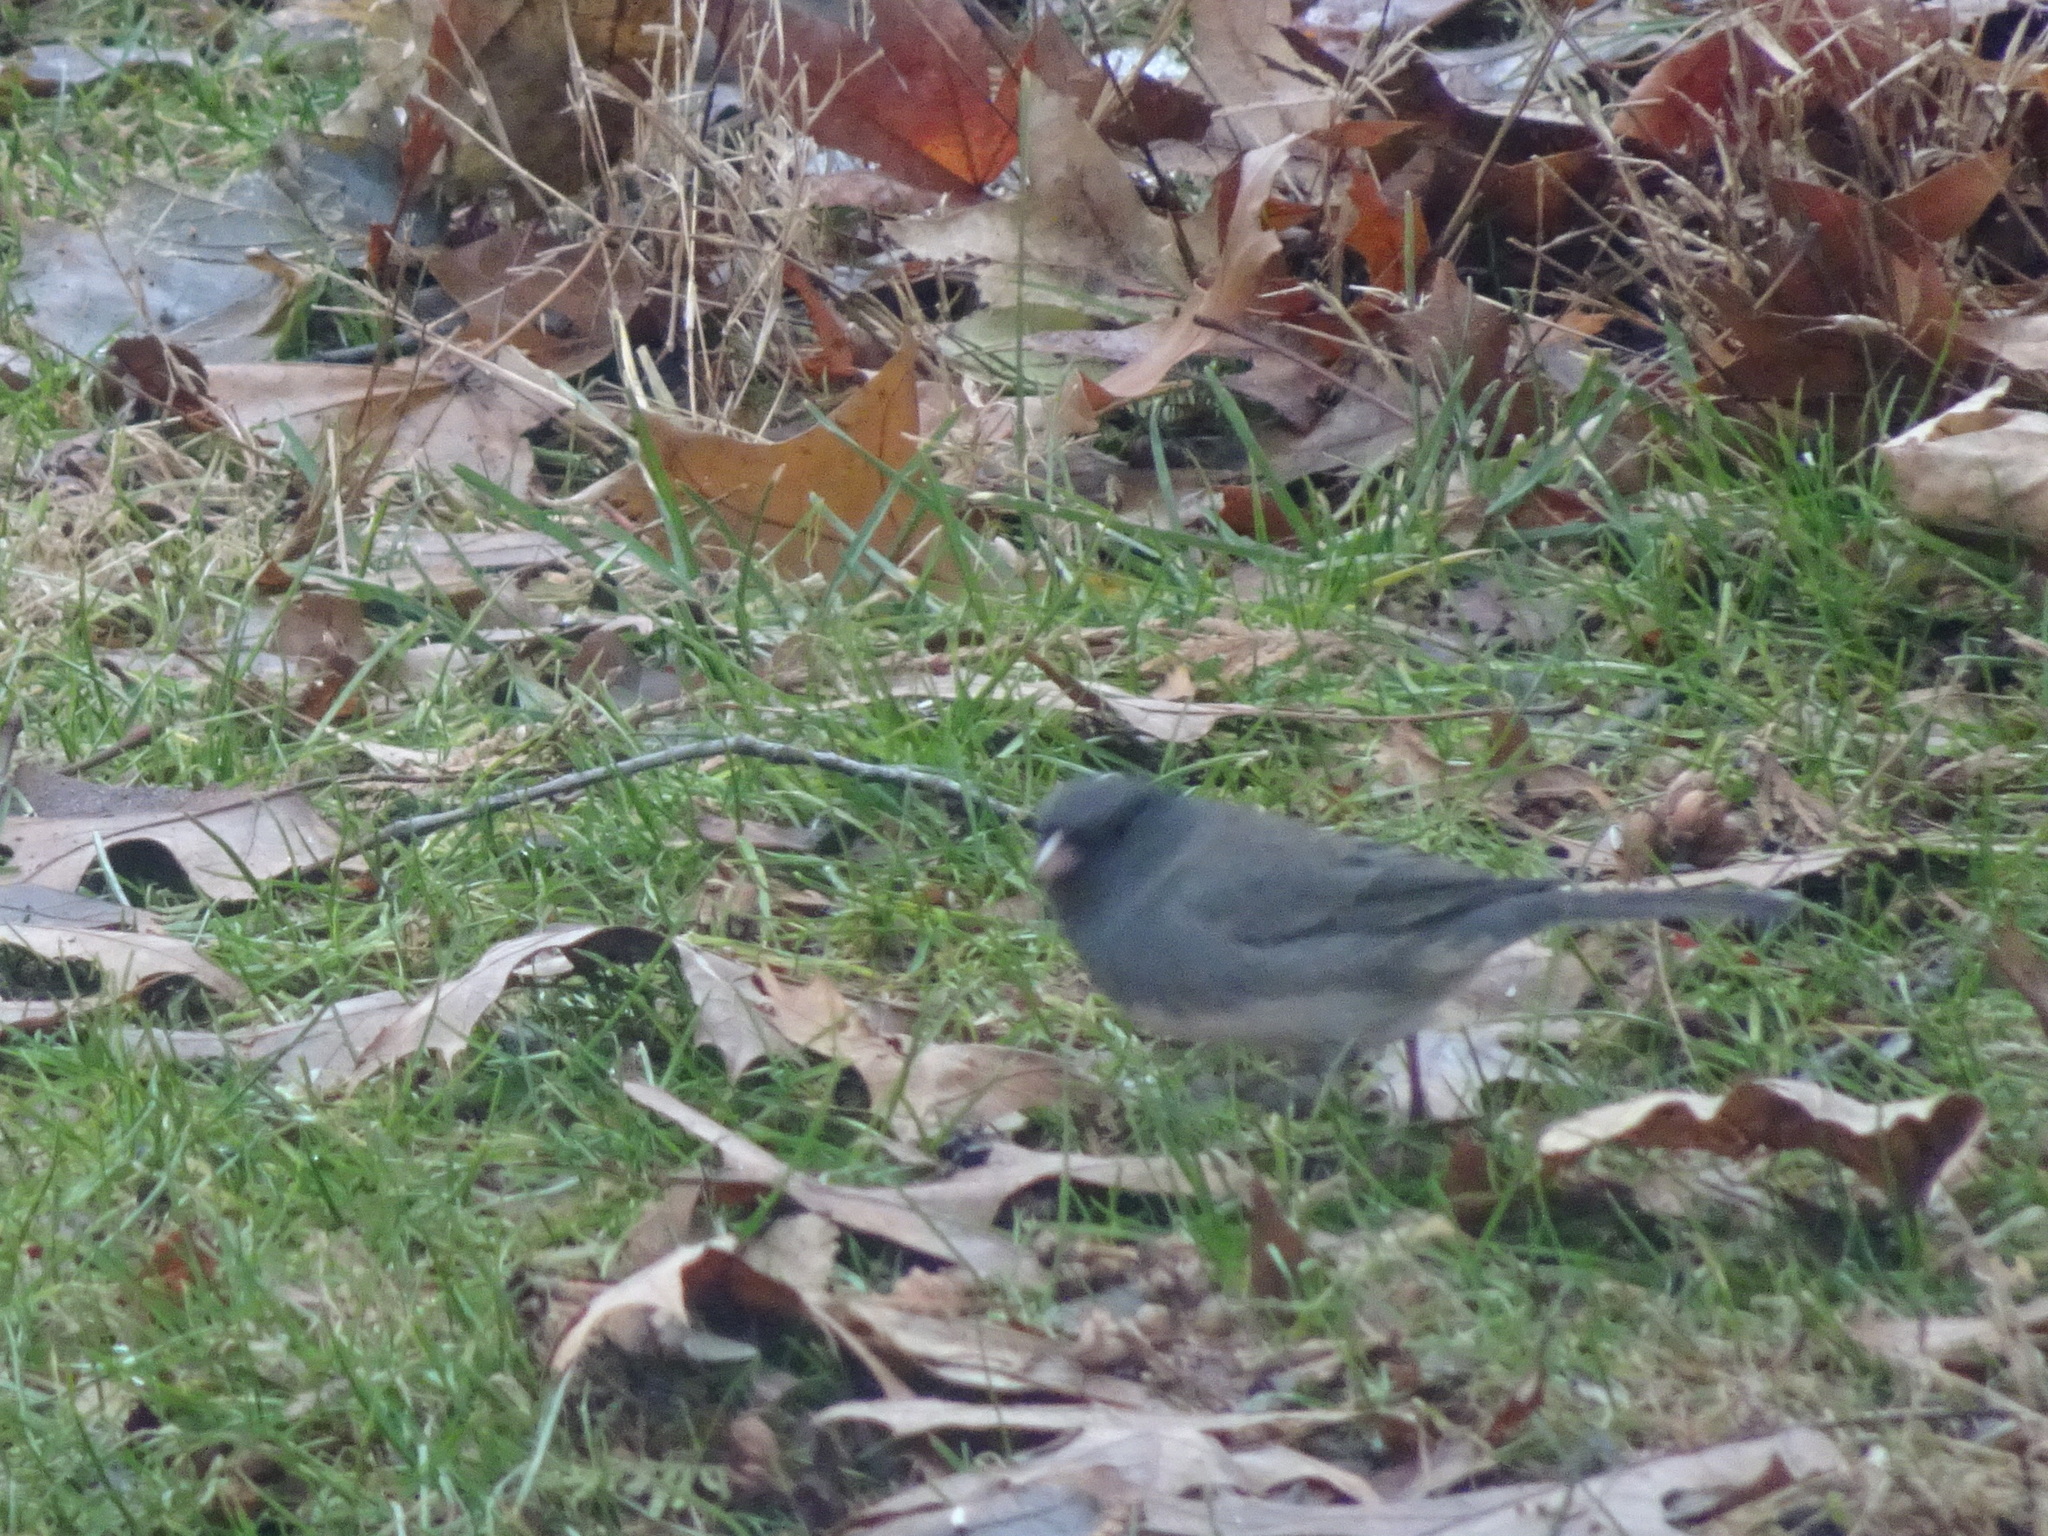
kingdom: Animalia
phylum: Chordata
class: Aves
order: Passeriformes
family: Passerellidae
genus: Junco
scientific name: Junco hyemalis
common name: Dark-eyed junco
